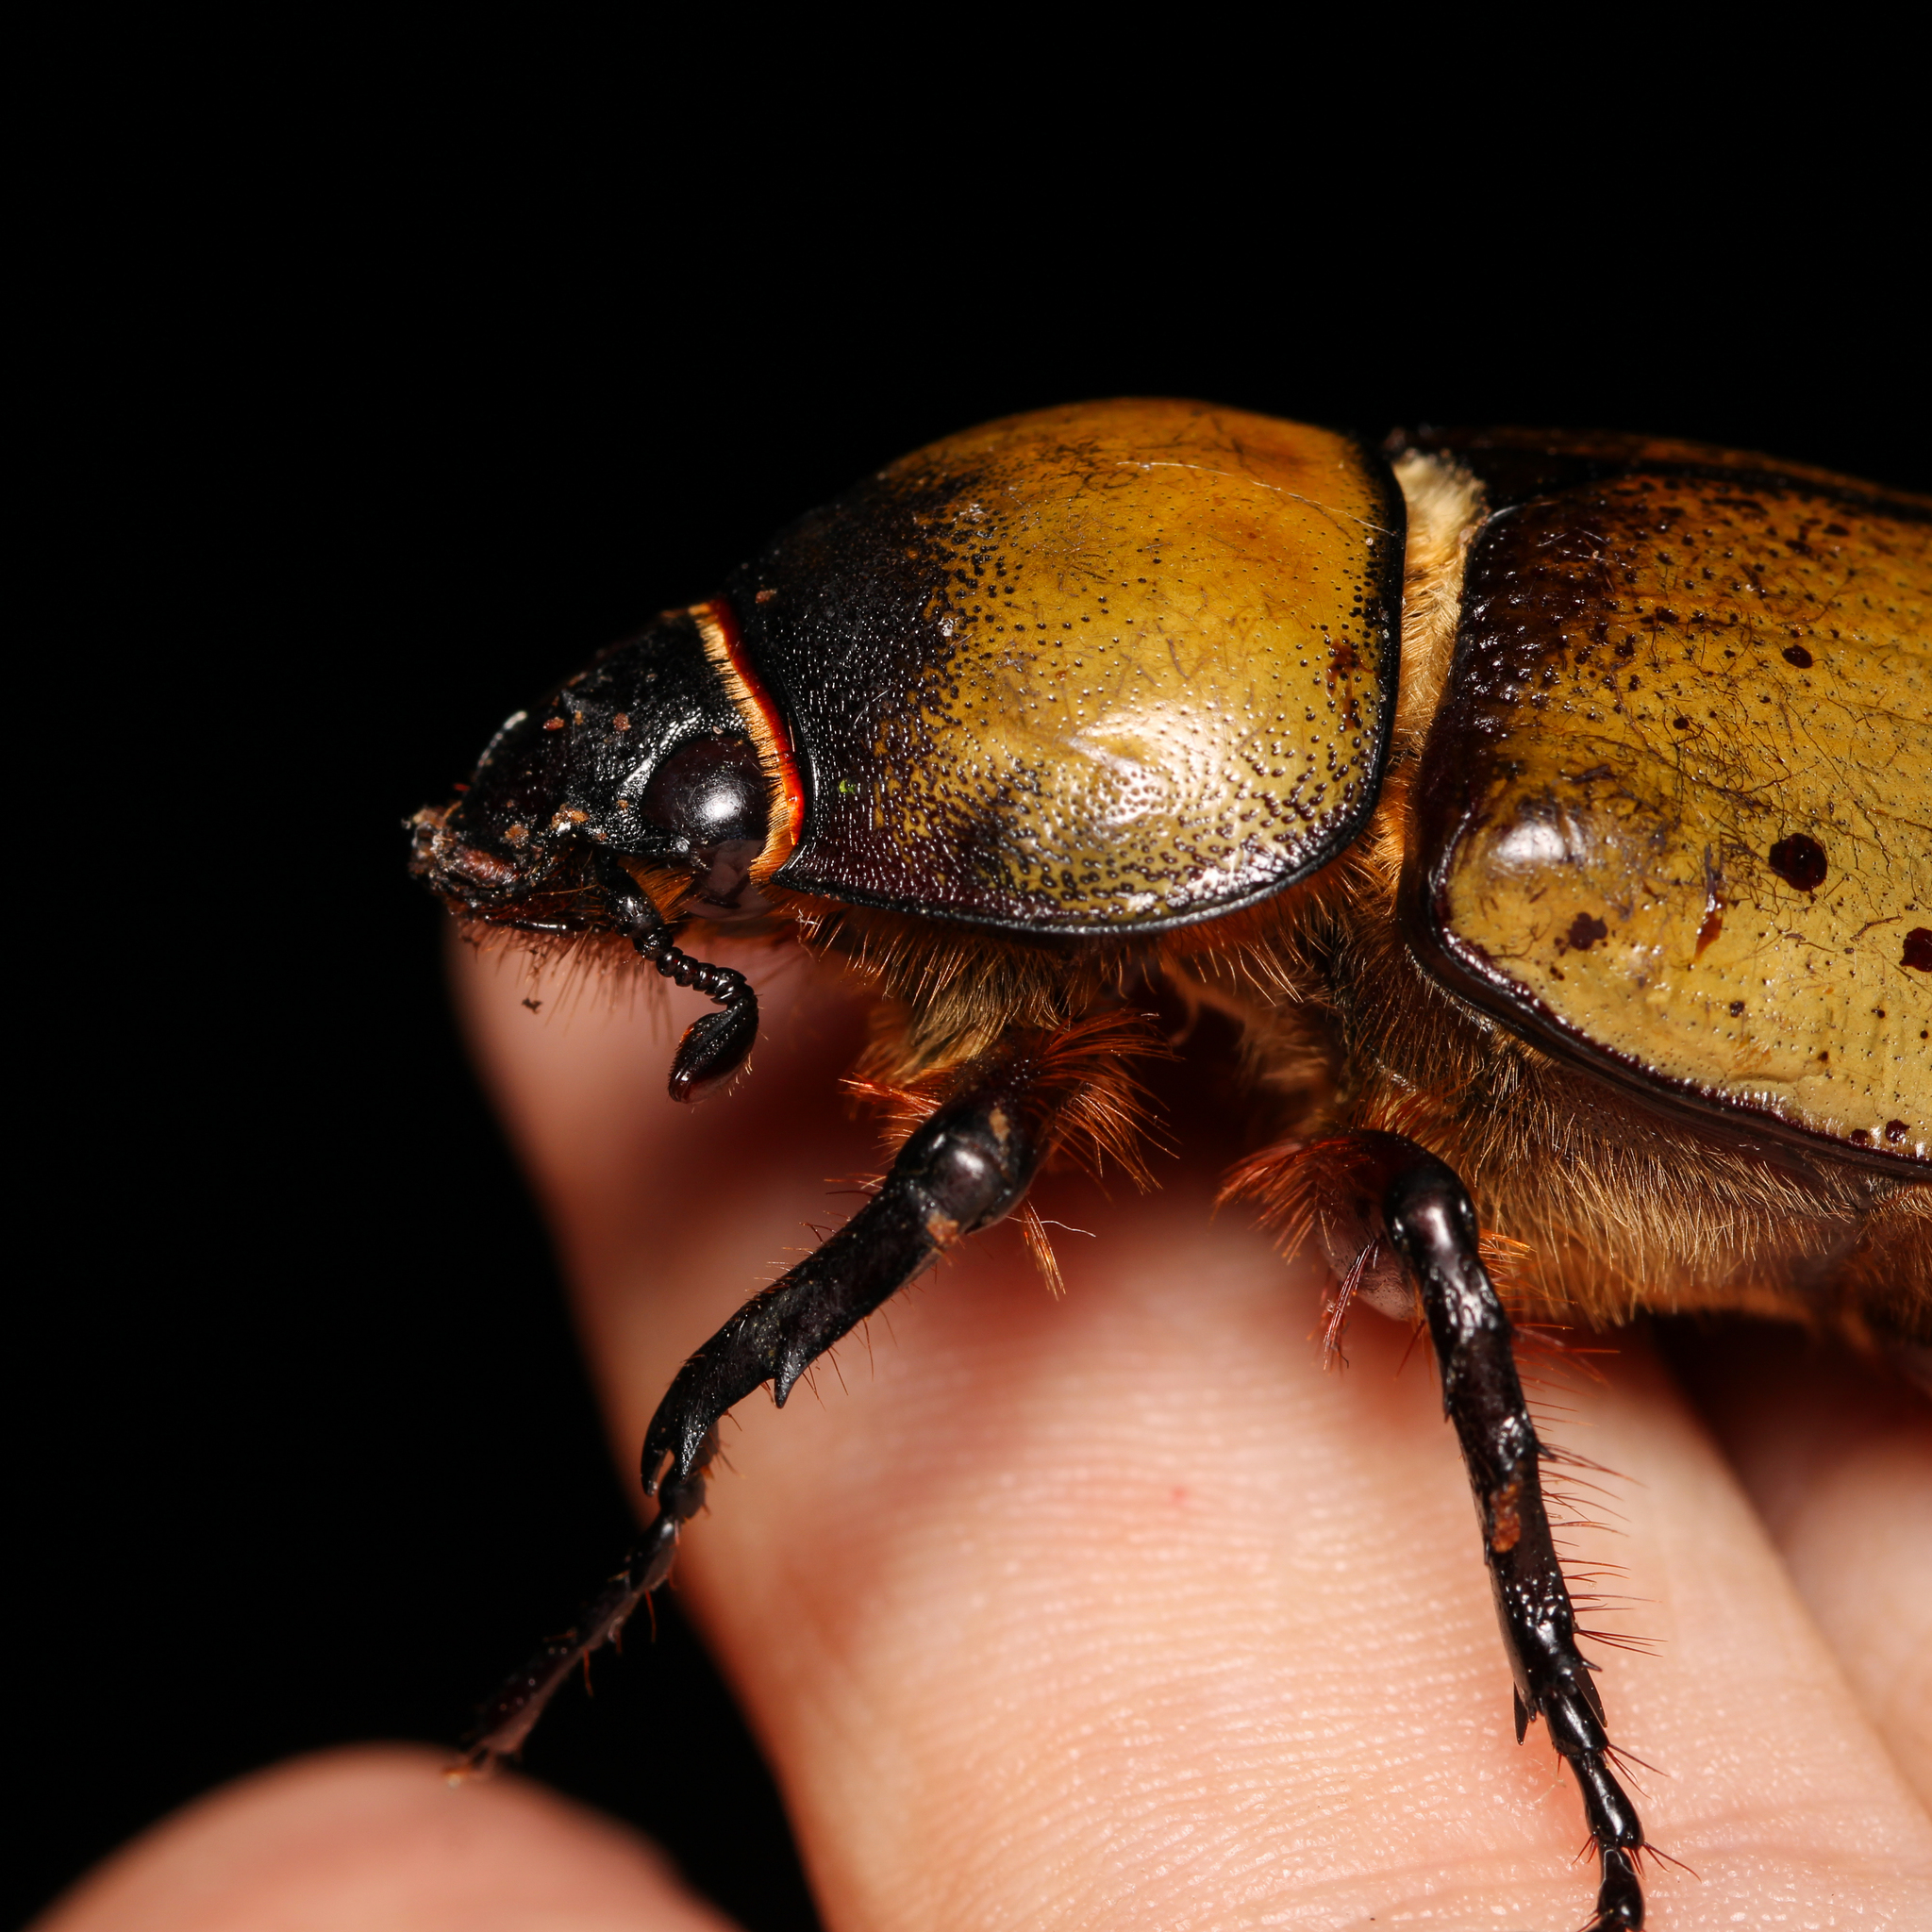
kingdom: Animalia
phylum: Arthropoda
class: Insecta
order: Coleoptera
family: Scarabaeidae
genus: Dynastes
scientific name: Dynastes tityus
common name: Eastern hercules beetle
